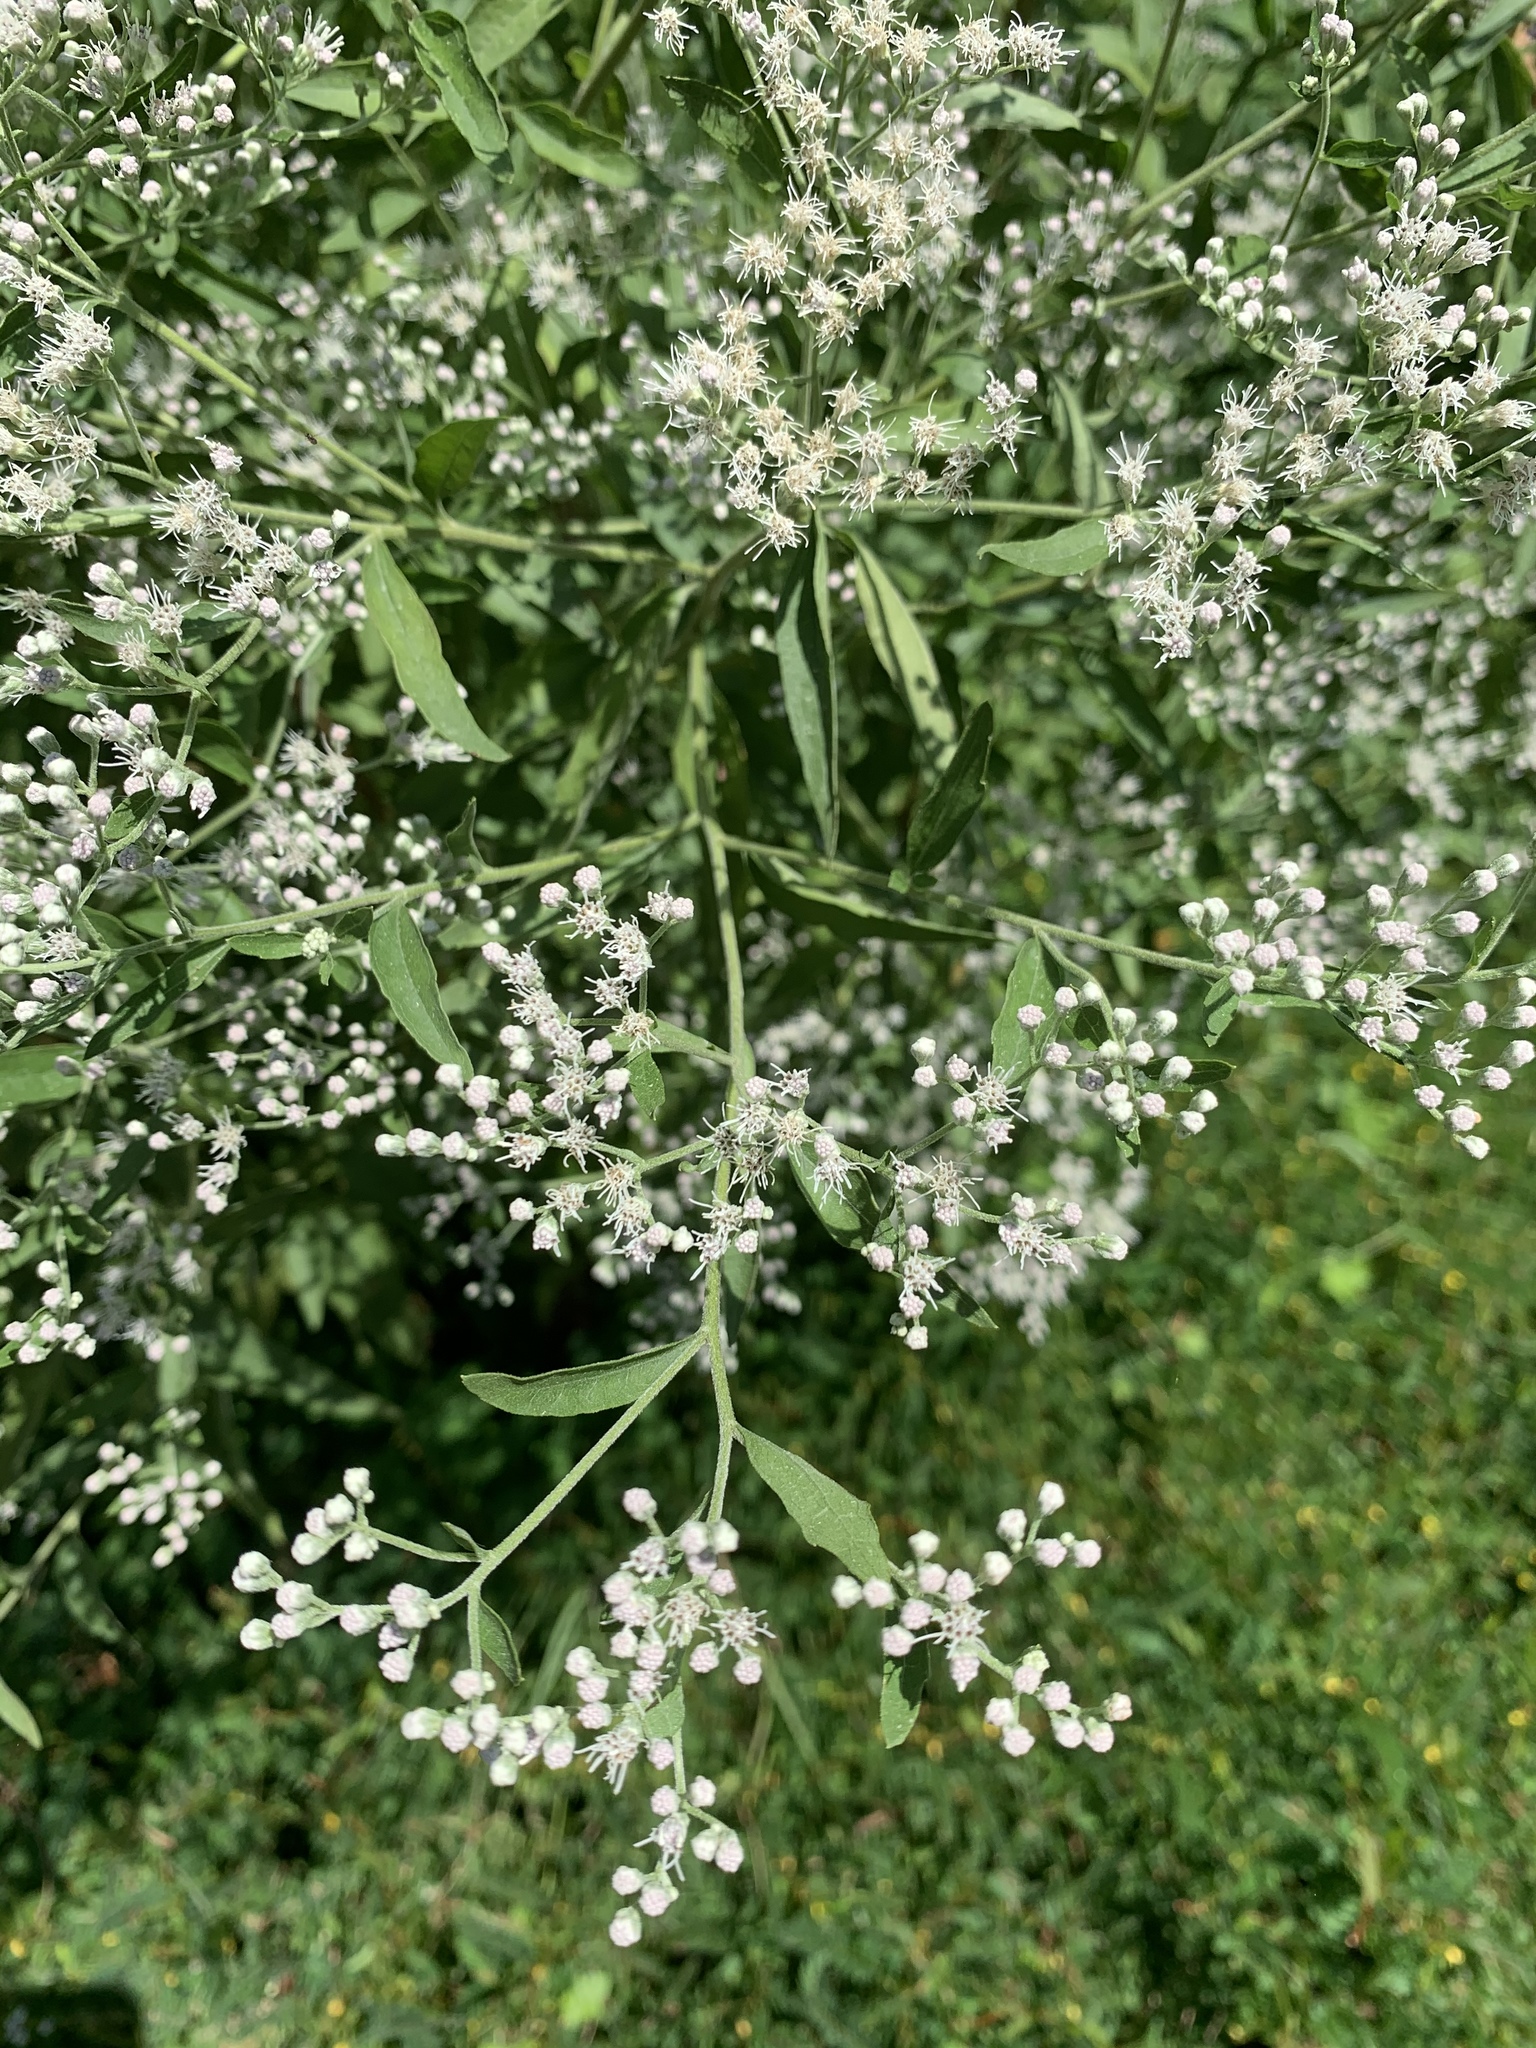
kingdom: Plantae
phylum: Tracheophyta
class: Magnoliopsida
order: Asterales
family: Asteraceae
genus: Eupatorium
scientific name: Eupatorium serotinum
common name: Late boneset
